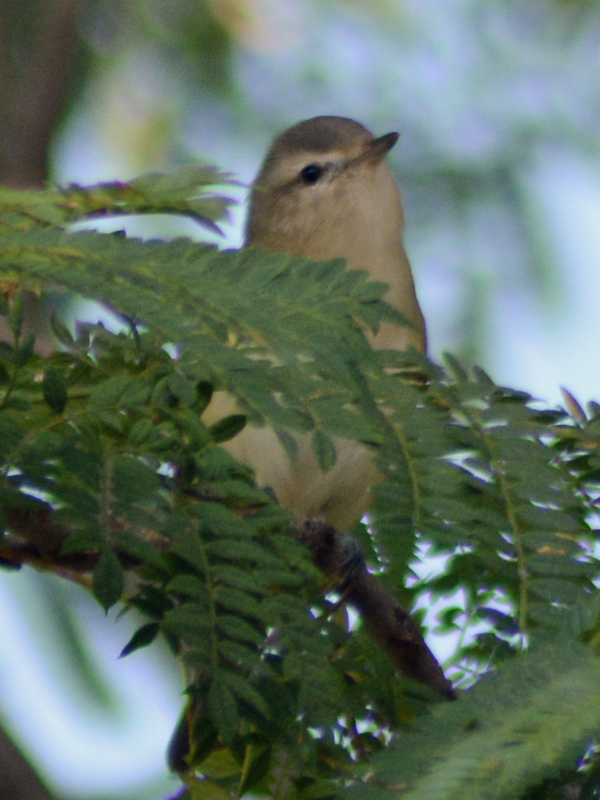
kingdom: Animalia
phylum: Chordata
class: Aves
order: Passeriformes
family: Vireonidae
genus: Vireo
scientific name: Vireo gilvus
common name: Warbling vireo
